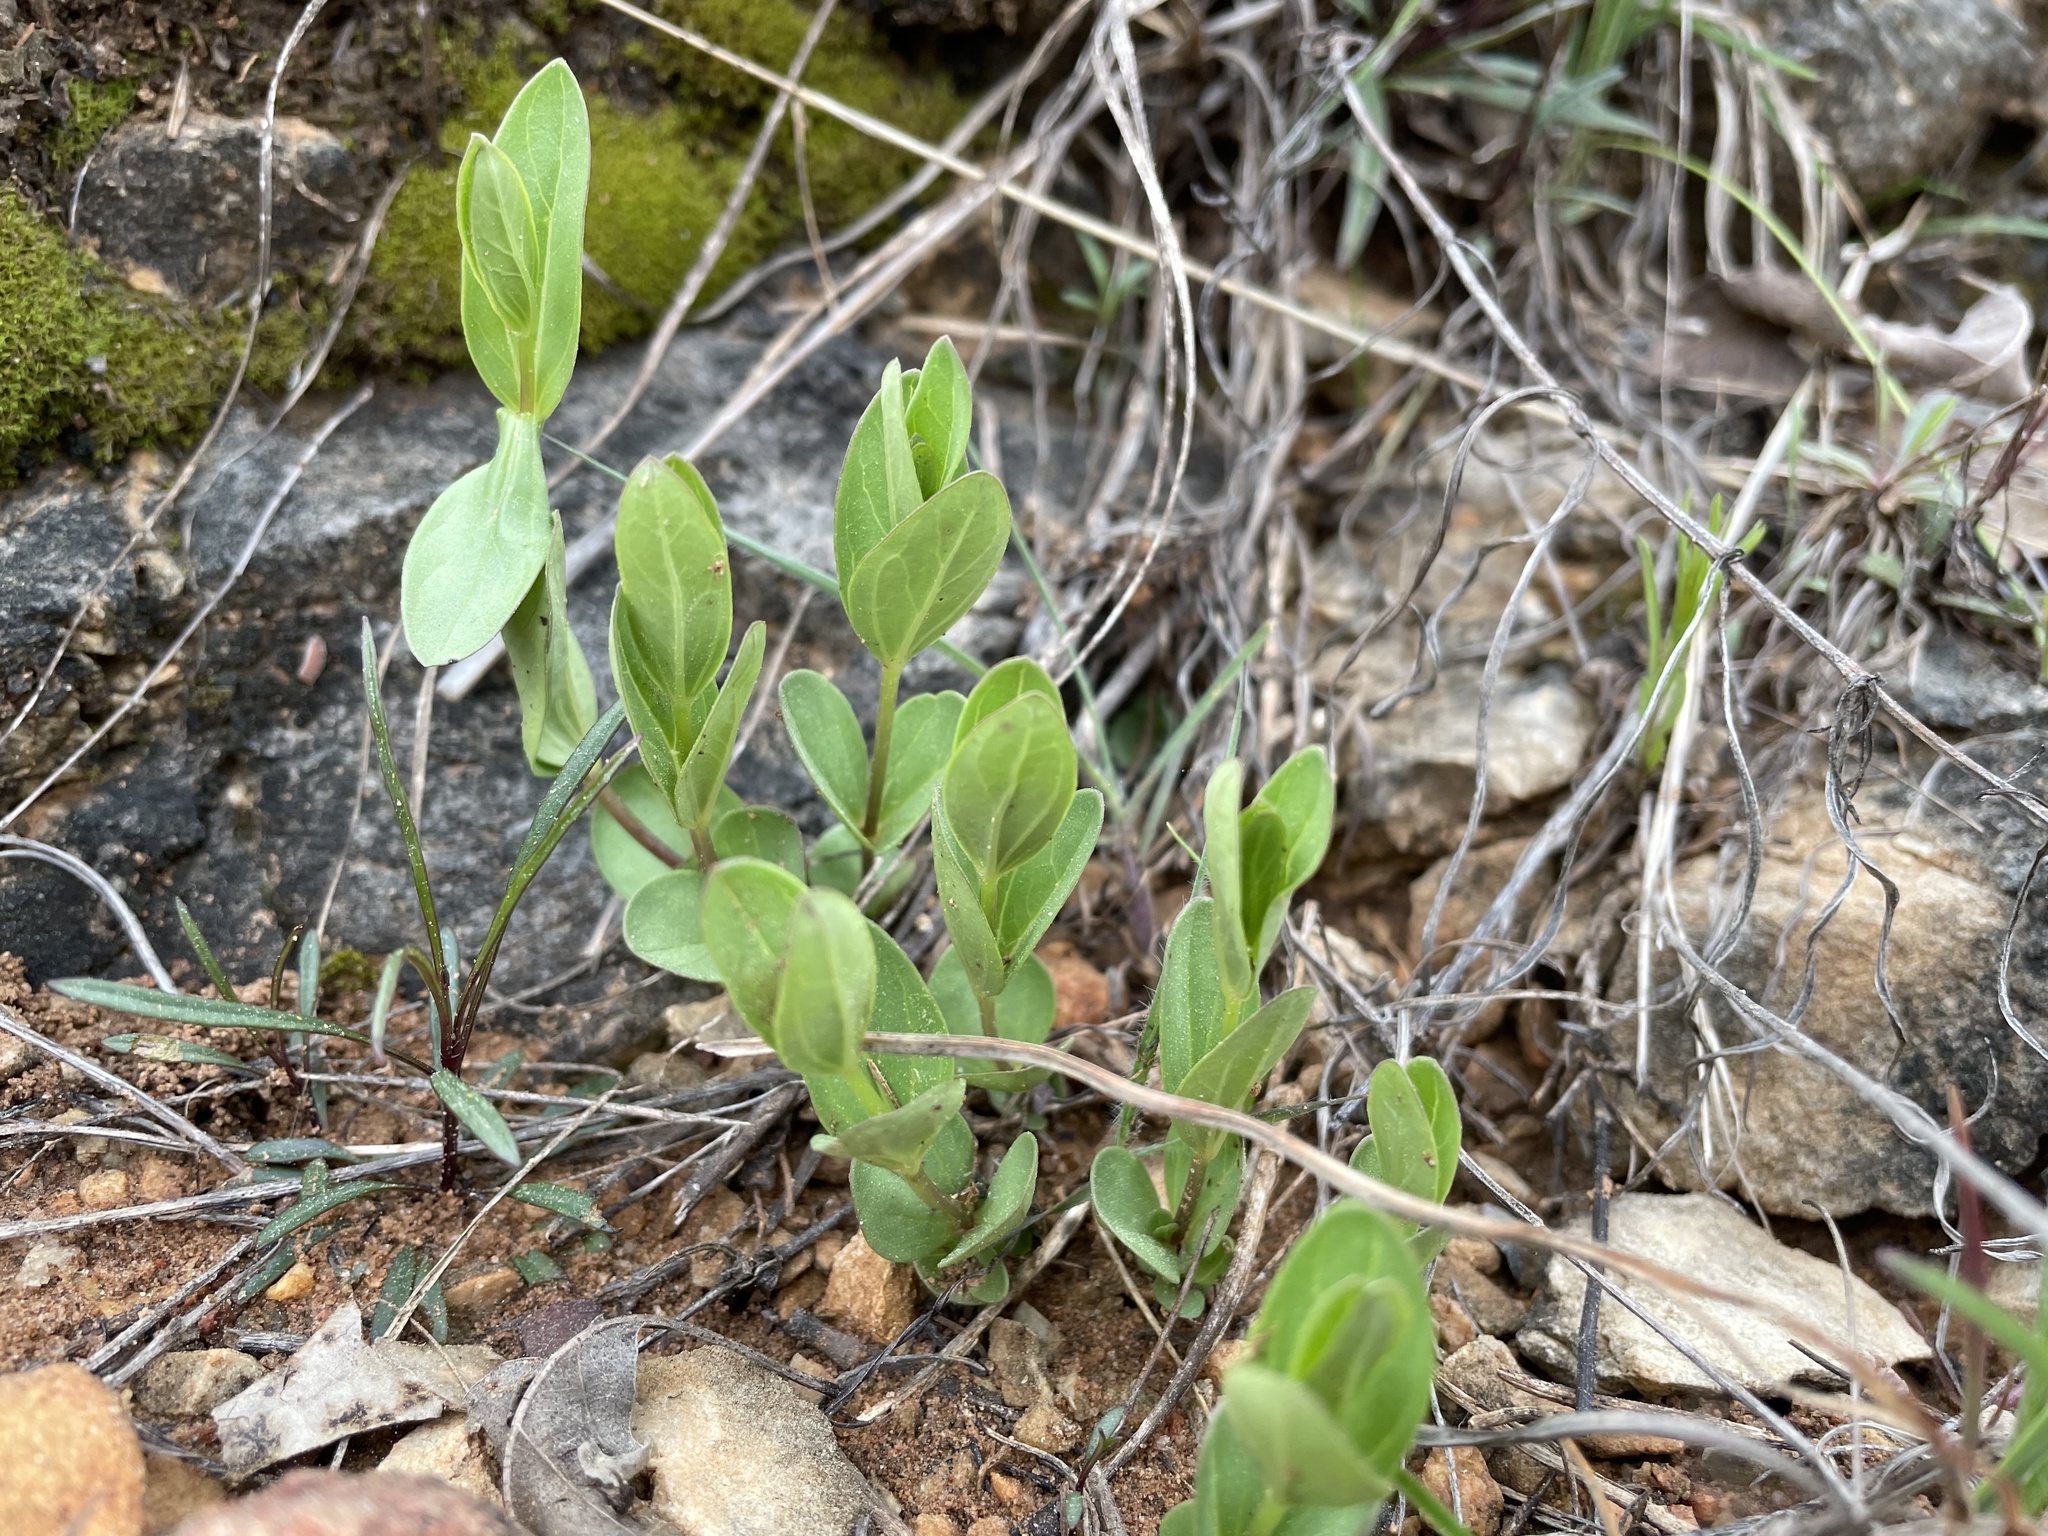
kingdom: Plantae
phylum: Tracheophyta
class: Magnoliopsida
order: Gentianales
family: Loganiaceae
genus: Spigelia
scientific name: Spigelia alabamensis
